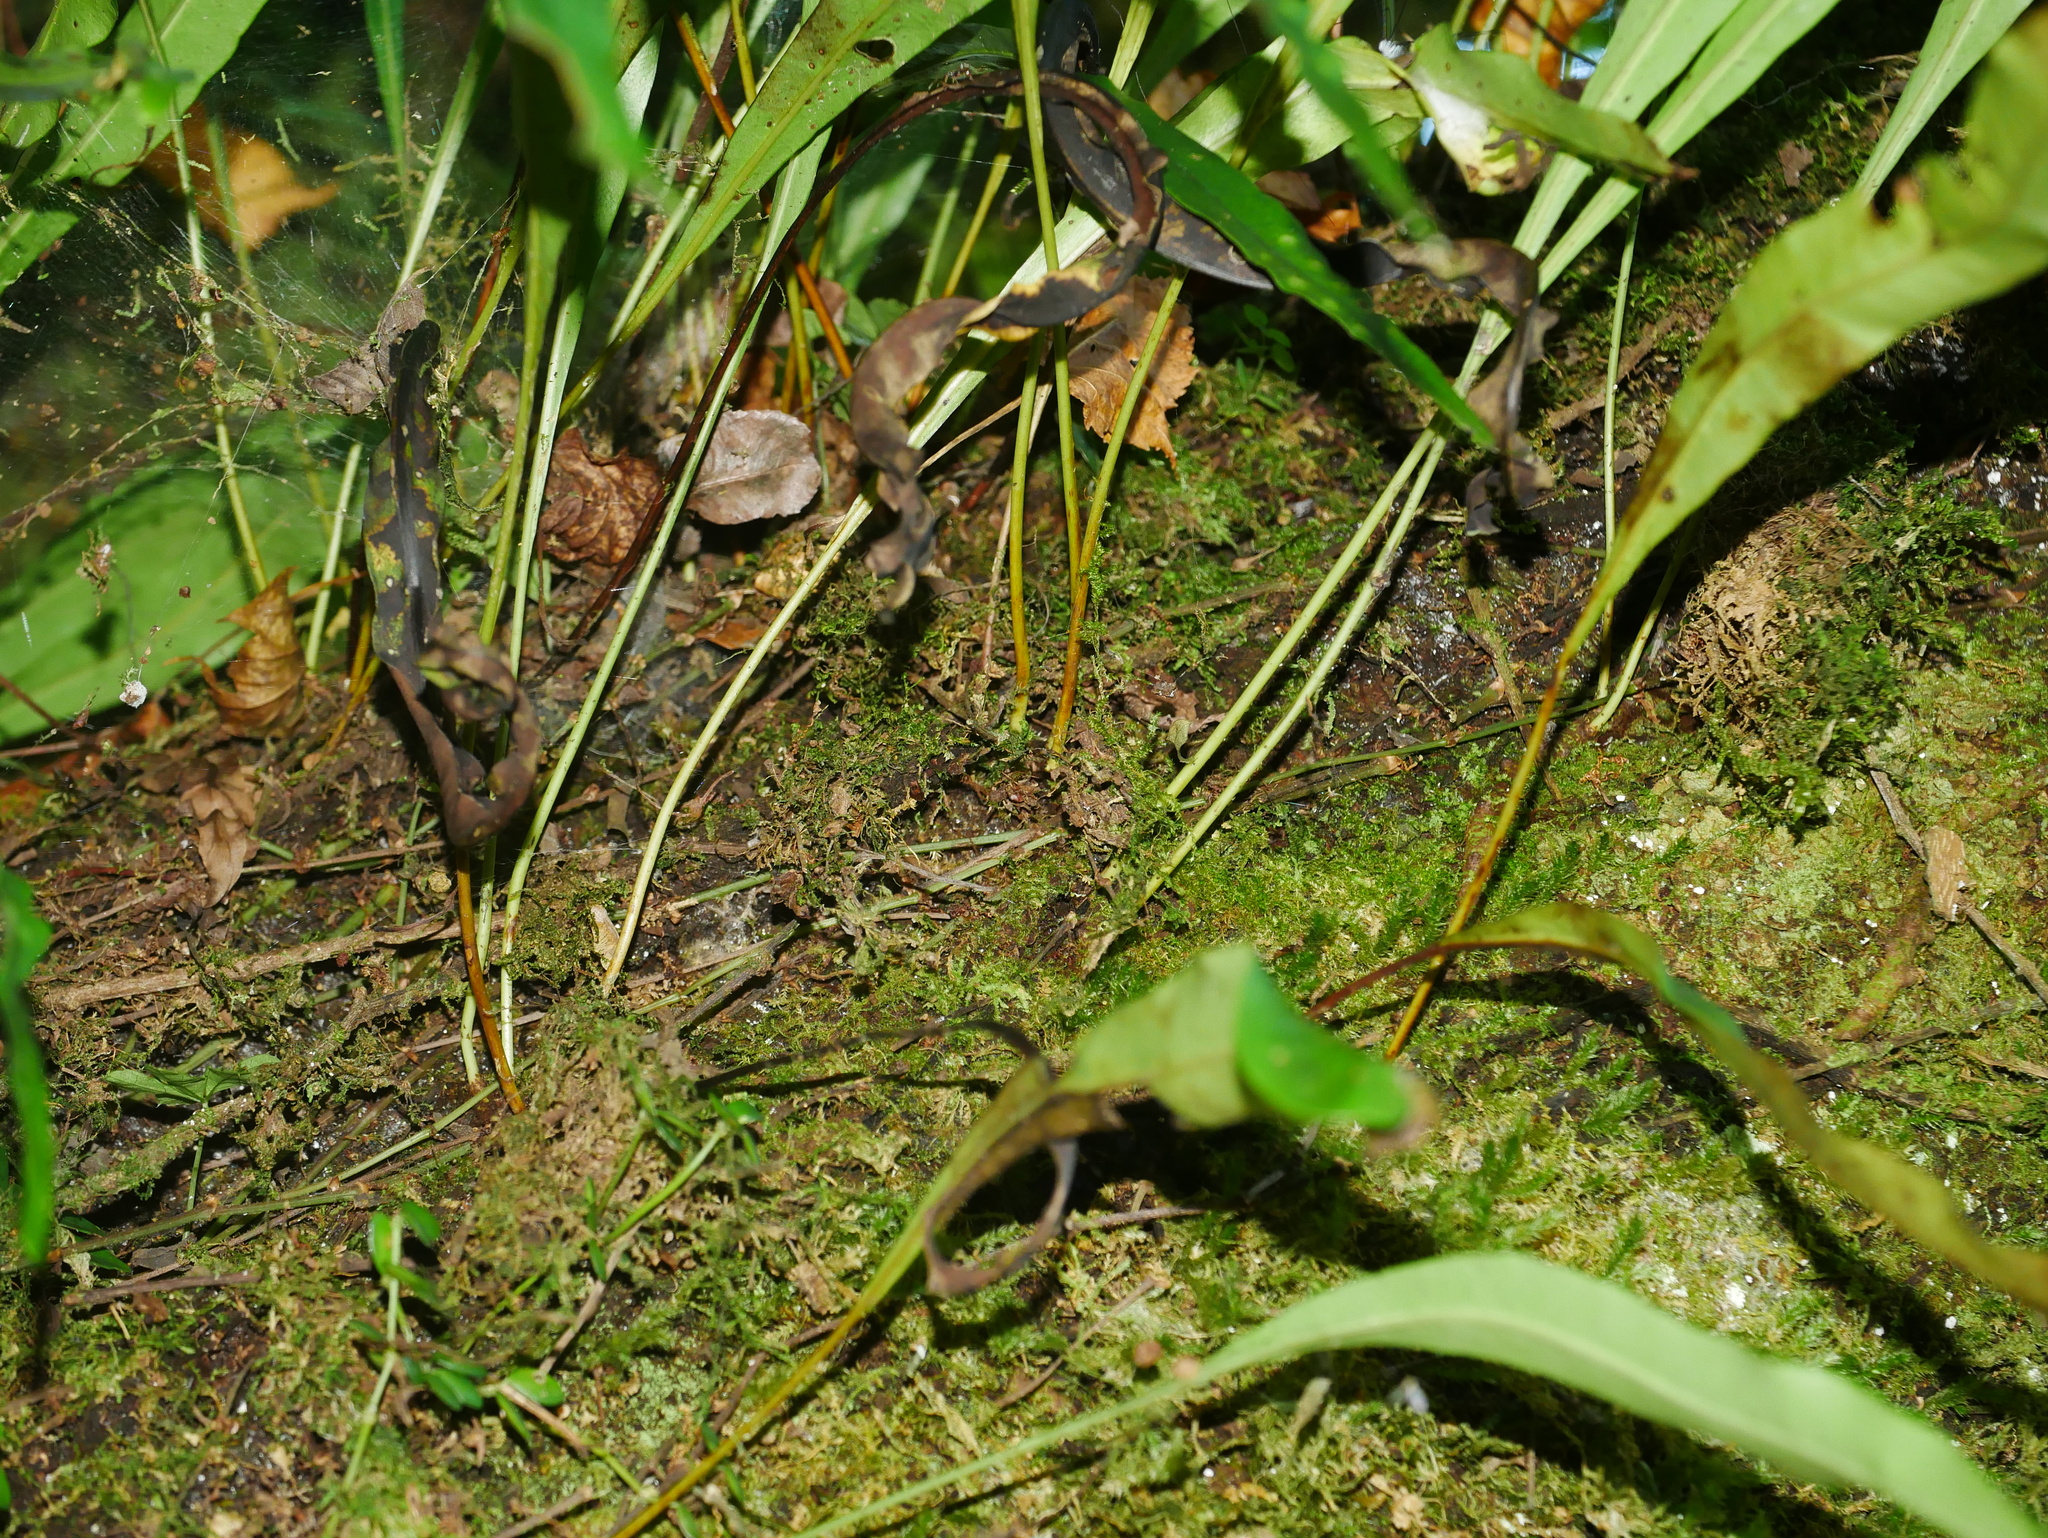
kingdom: Plantae
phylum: Tracheophyta
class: Polypodiopsida
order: Polypodiales
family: Polypodiaceae
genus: Lepisorus
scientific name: Lepisorus kawakamii
